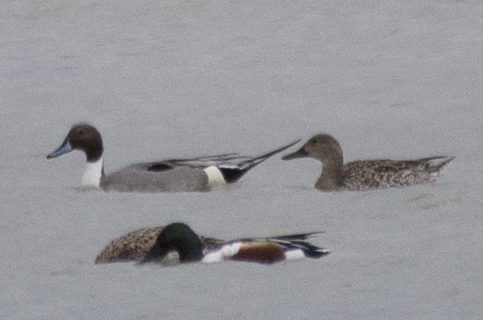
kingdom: Animalia
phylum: Chordata
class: Aves
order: Anseriformes
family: Anatidae
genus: Anas
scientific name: Anas acuta
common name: Northern pintail
